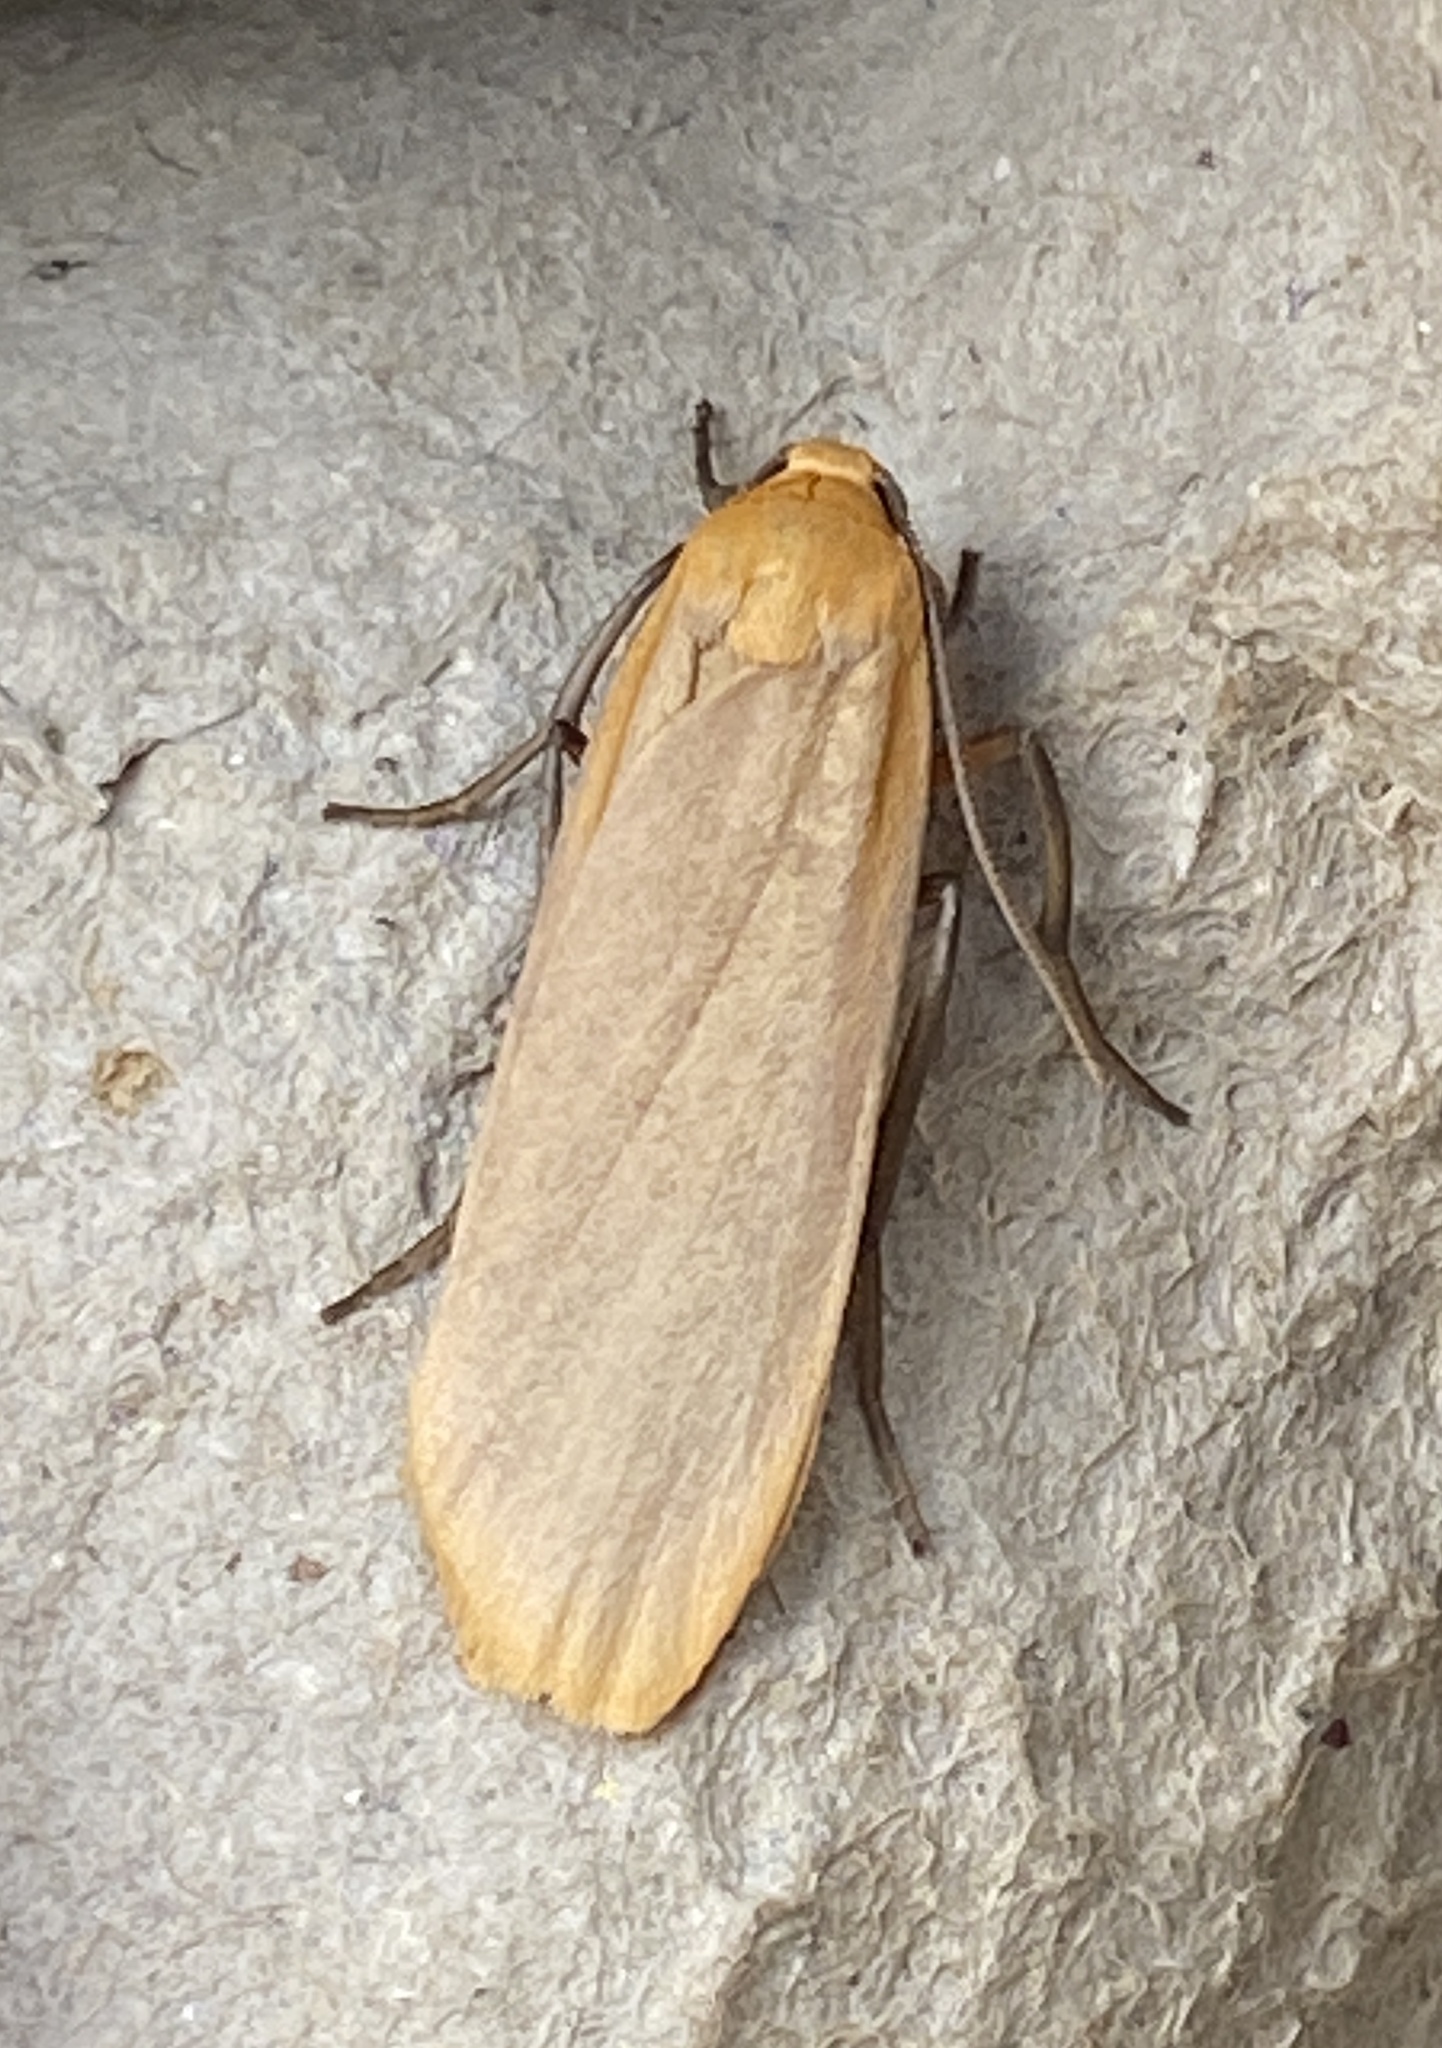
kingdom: Animalia
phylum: Arthropoda
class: Insecta
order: Lepidoptera
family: Erebidae
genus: Katha
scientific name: Katha depressa
